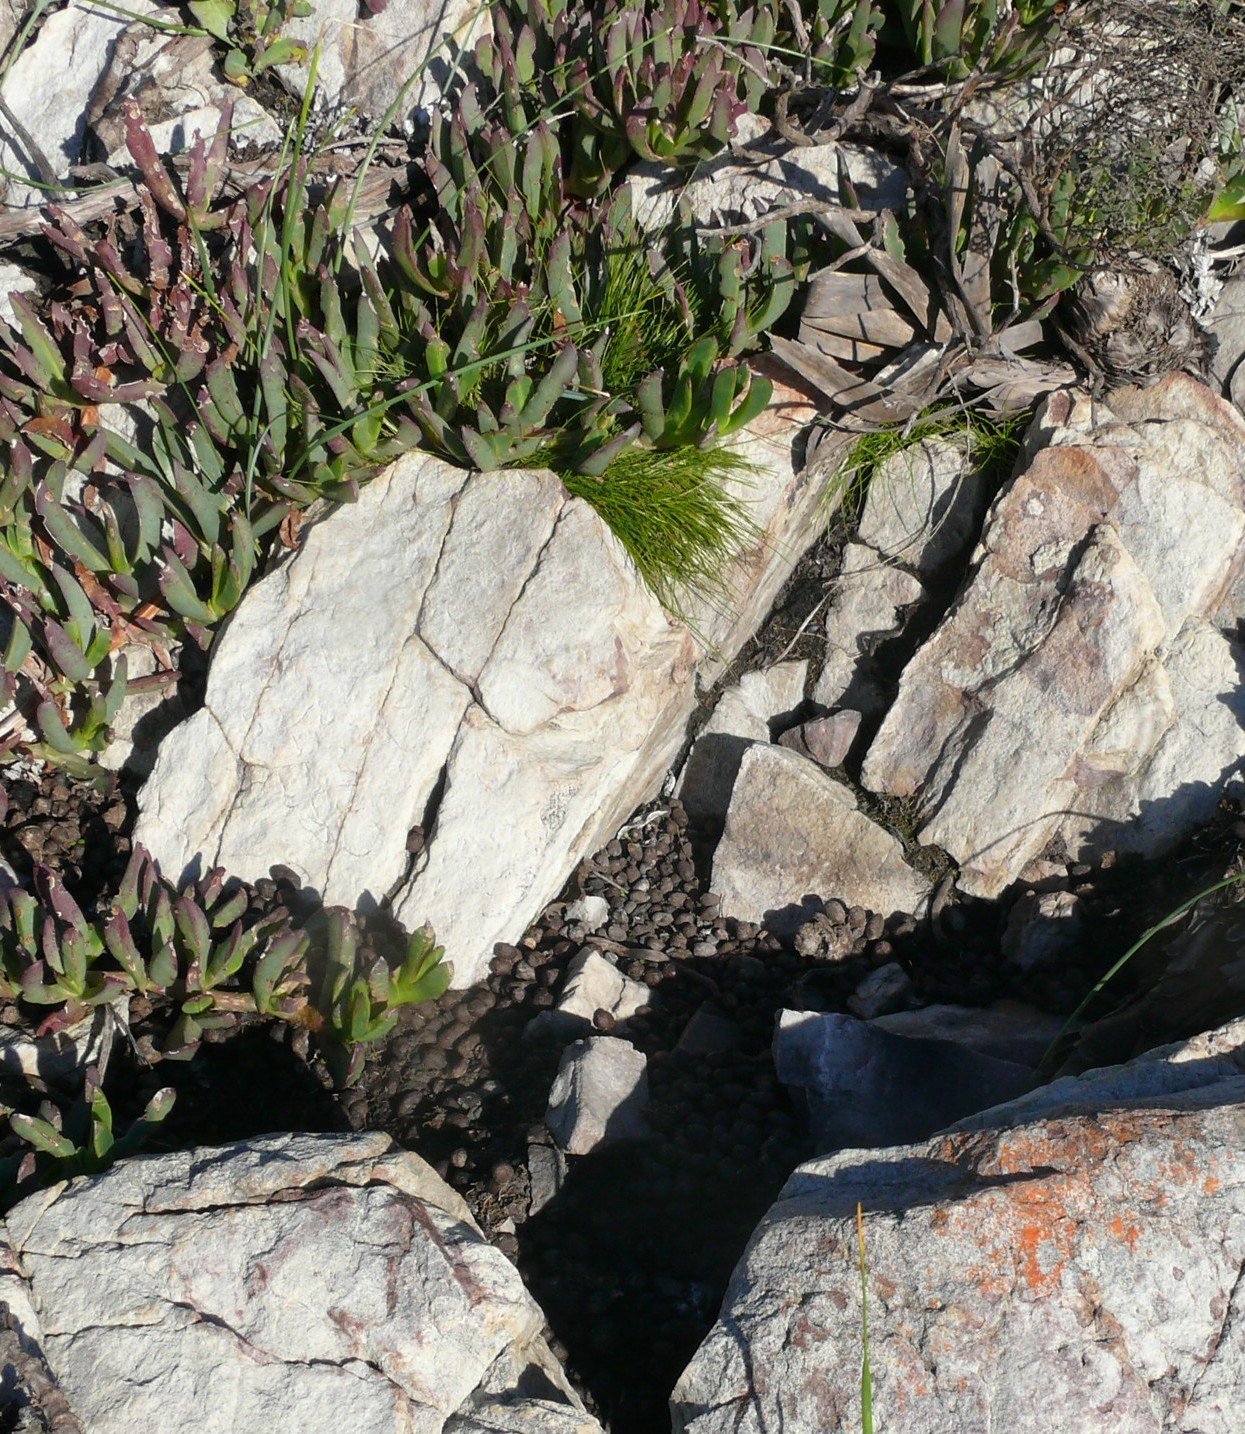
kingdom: Plantae
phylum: Tracheophyta
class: Magnoliopsida
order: Caryophyllales
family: Aizoaceae
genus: Carpobrotus
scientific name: Carpobrotus mellei
